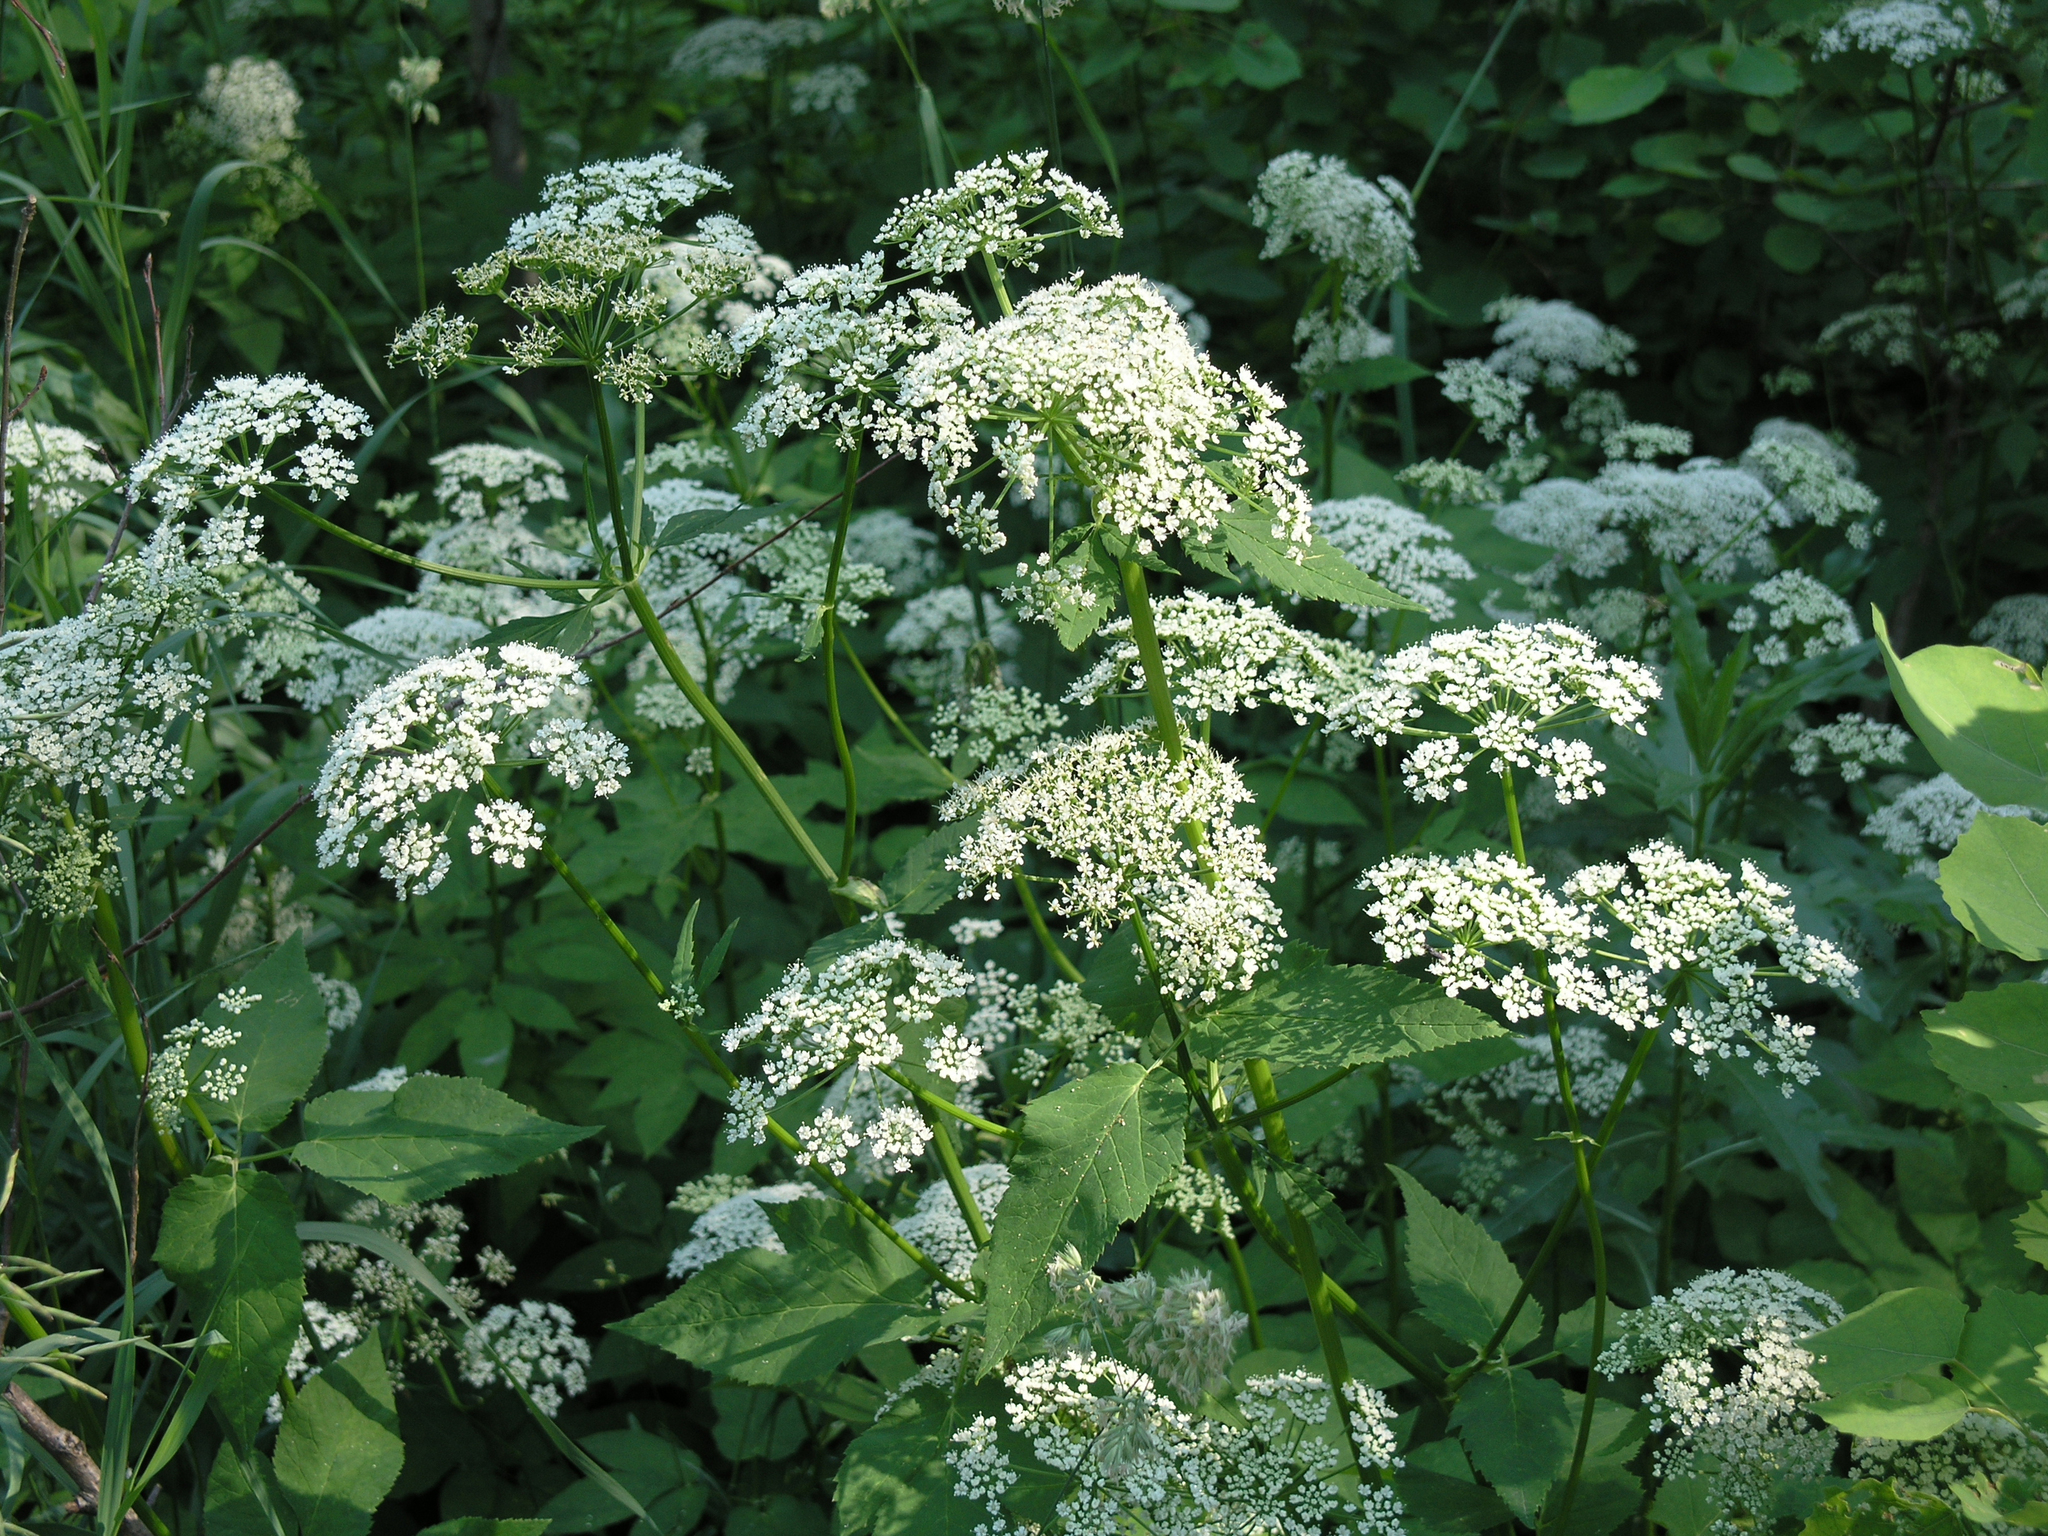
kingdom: Plantae
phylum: Tracheophyta
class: Magnoliopsida
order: Apiales
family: Apiaceae
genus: Aegopodium
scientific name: Aegopodium podagraria
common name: Ground-elder
